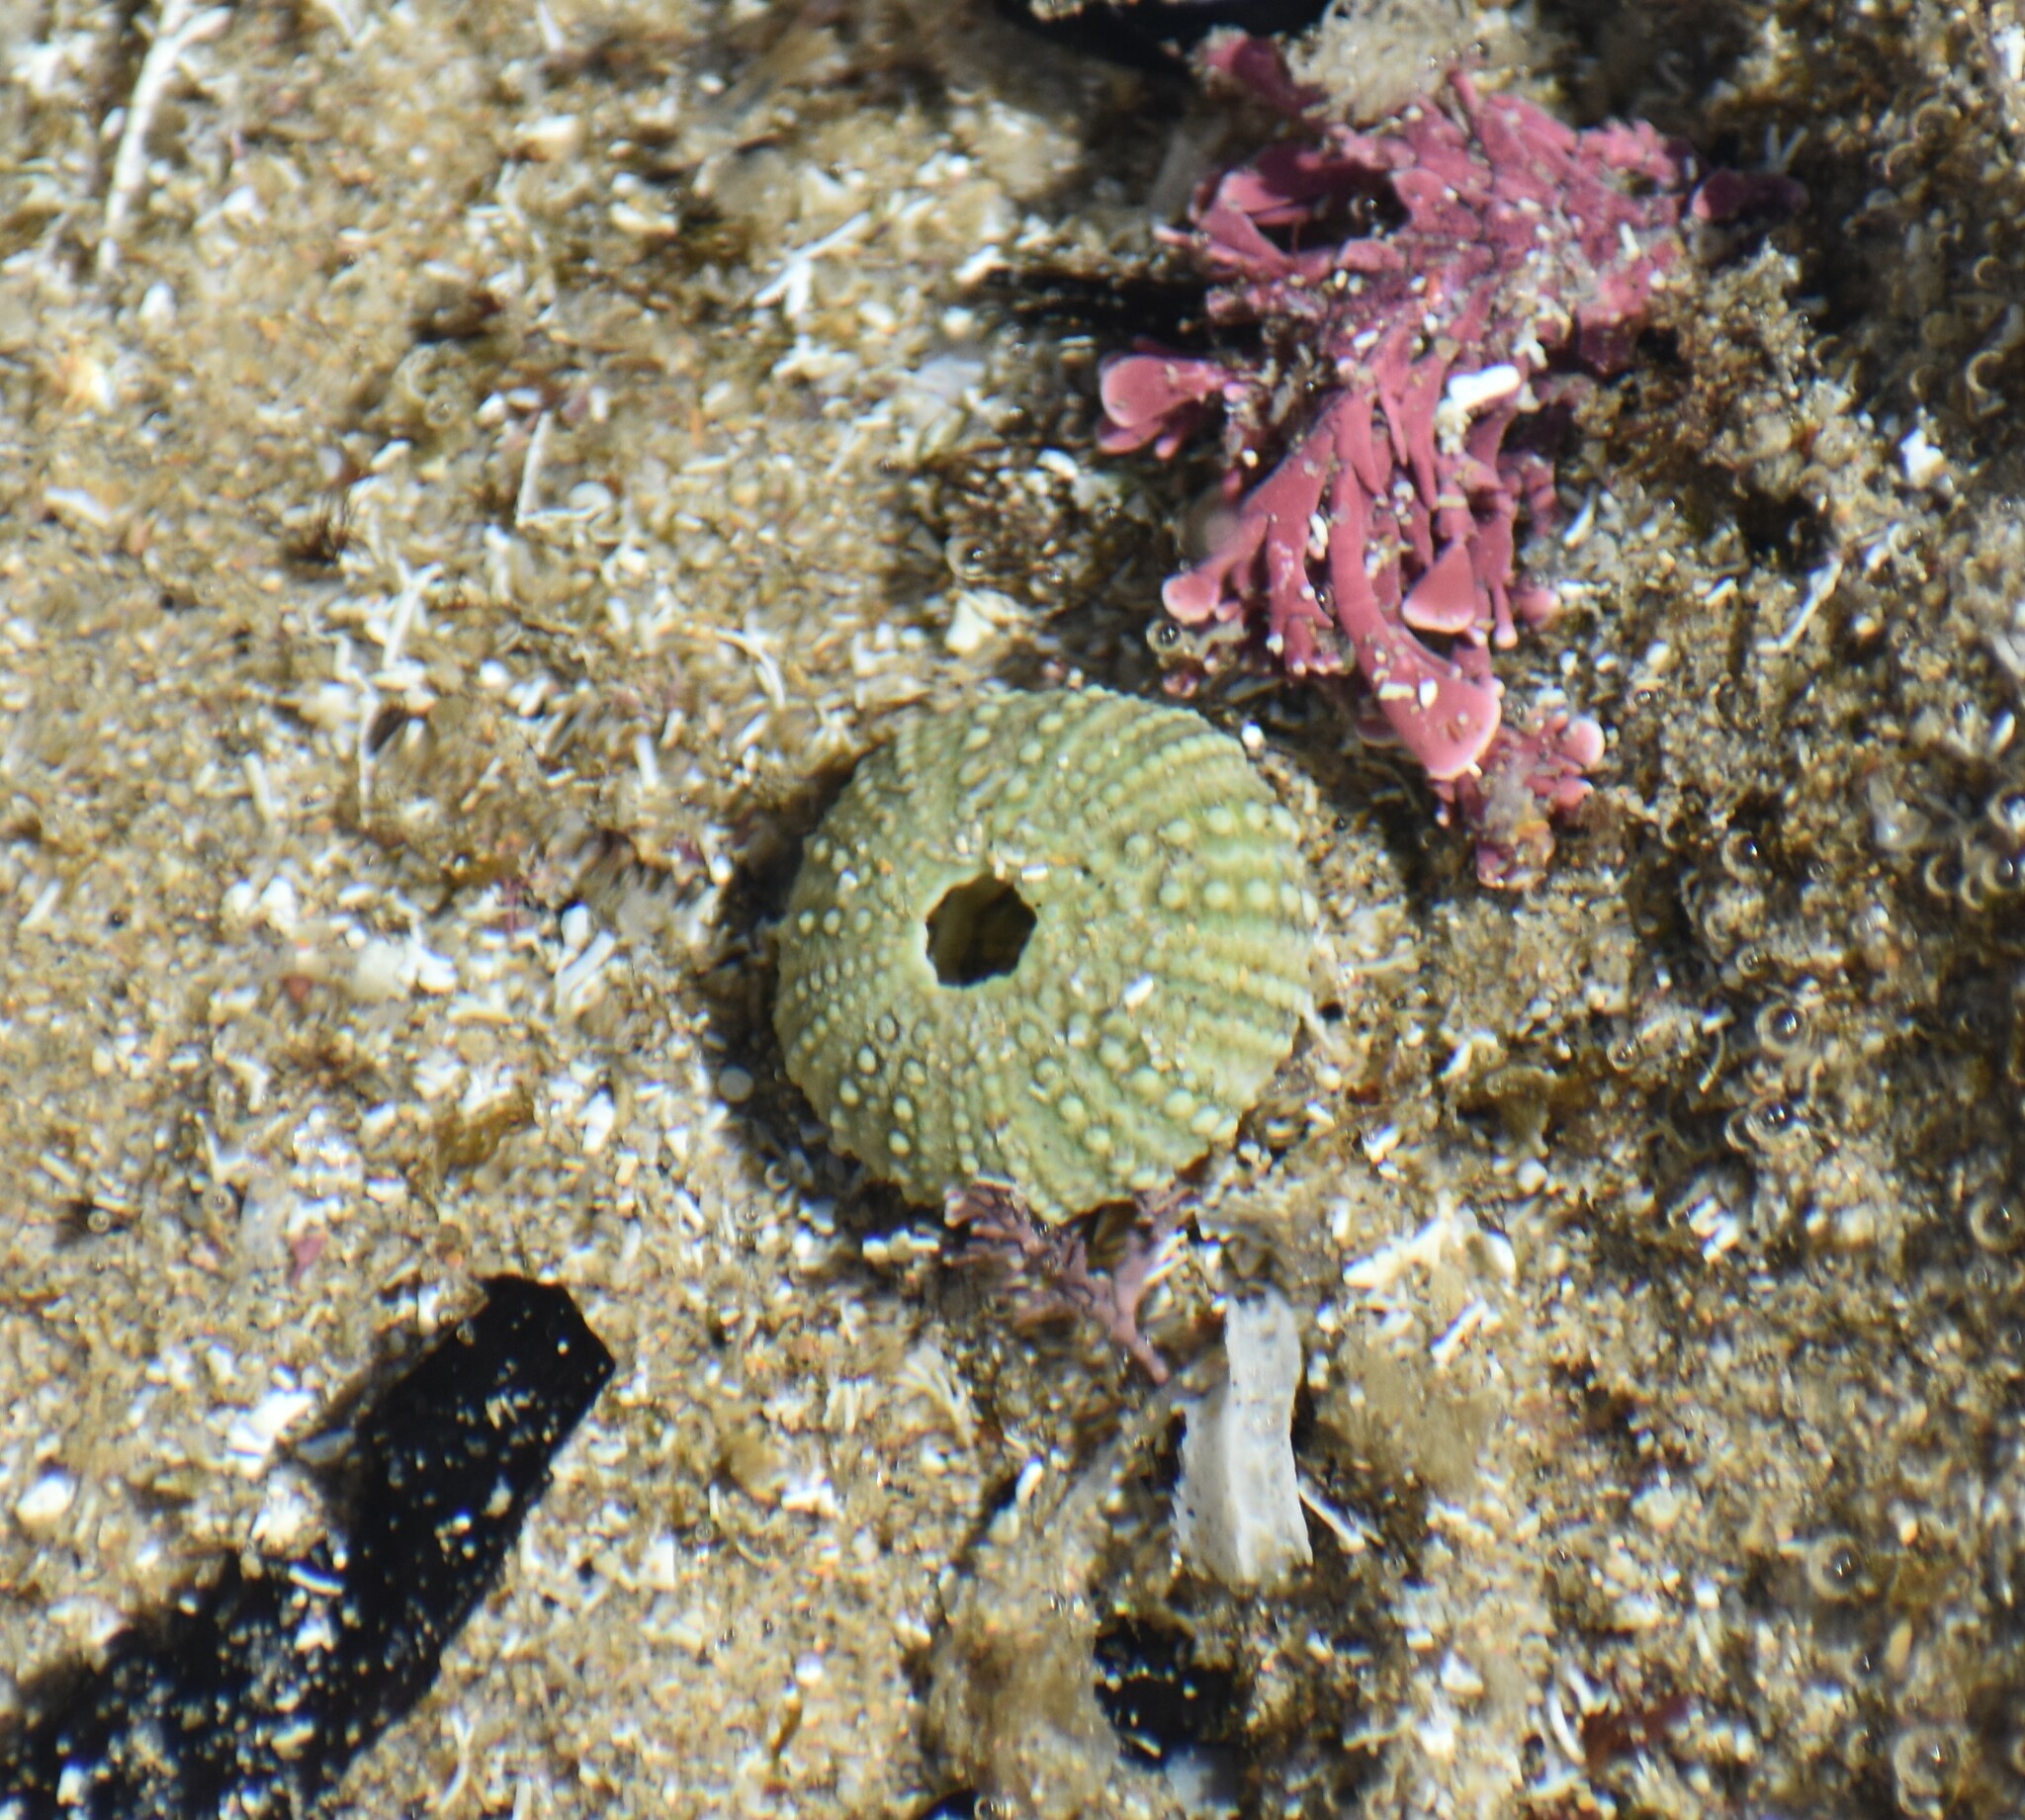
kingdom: Animalia
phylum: Echinodermata
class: Echinoidea
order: Camarodonta
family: Parechinidae
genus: Parechinus
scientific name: Parechinus angulosus
